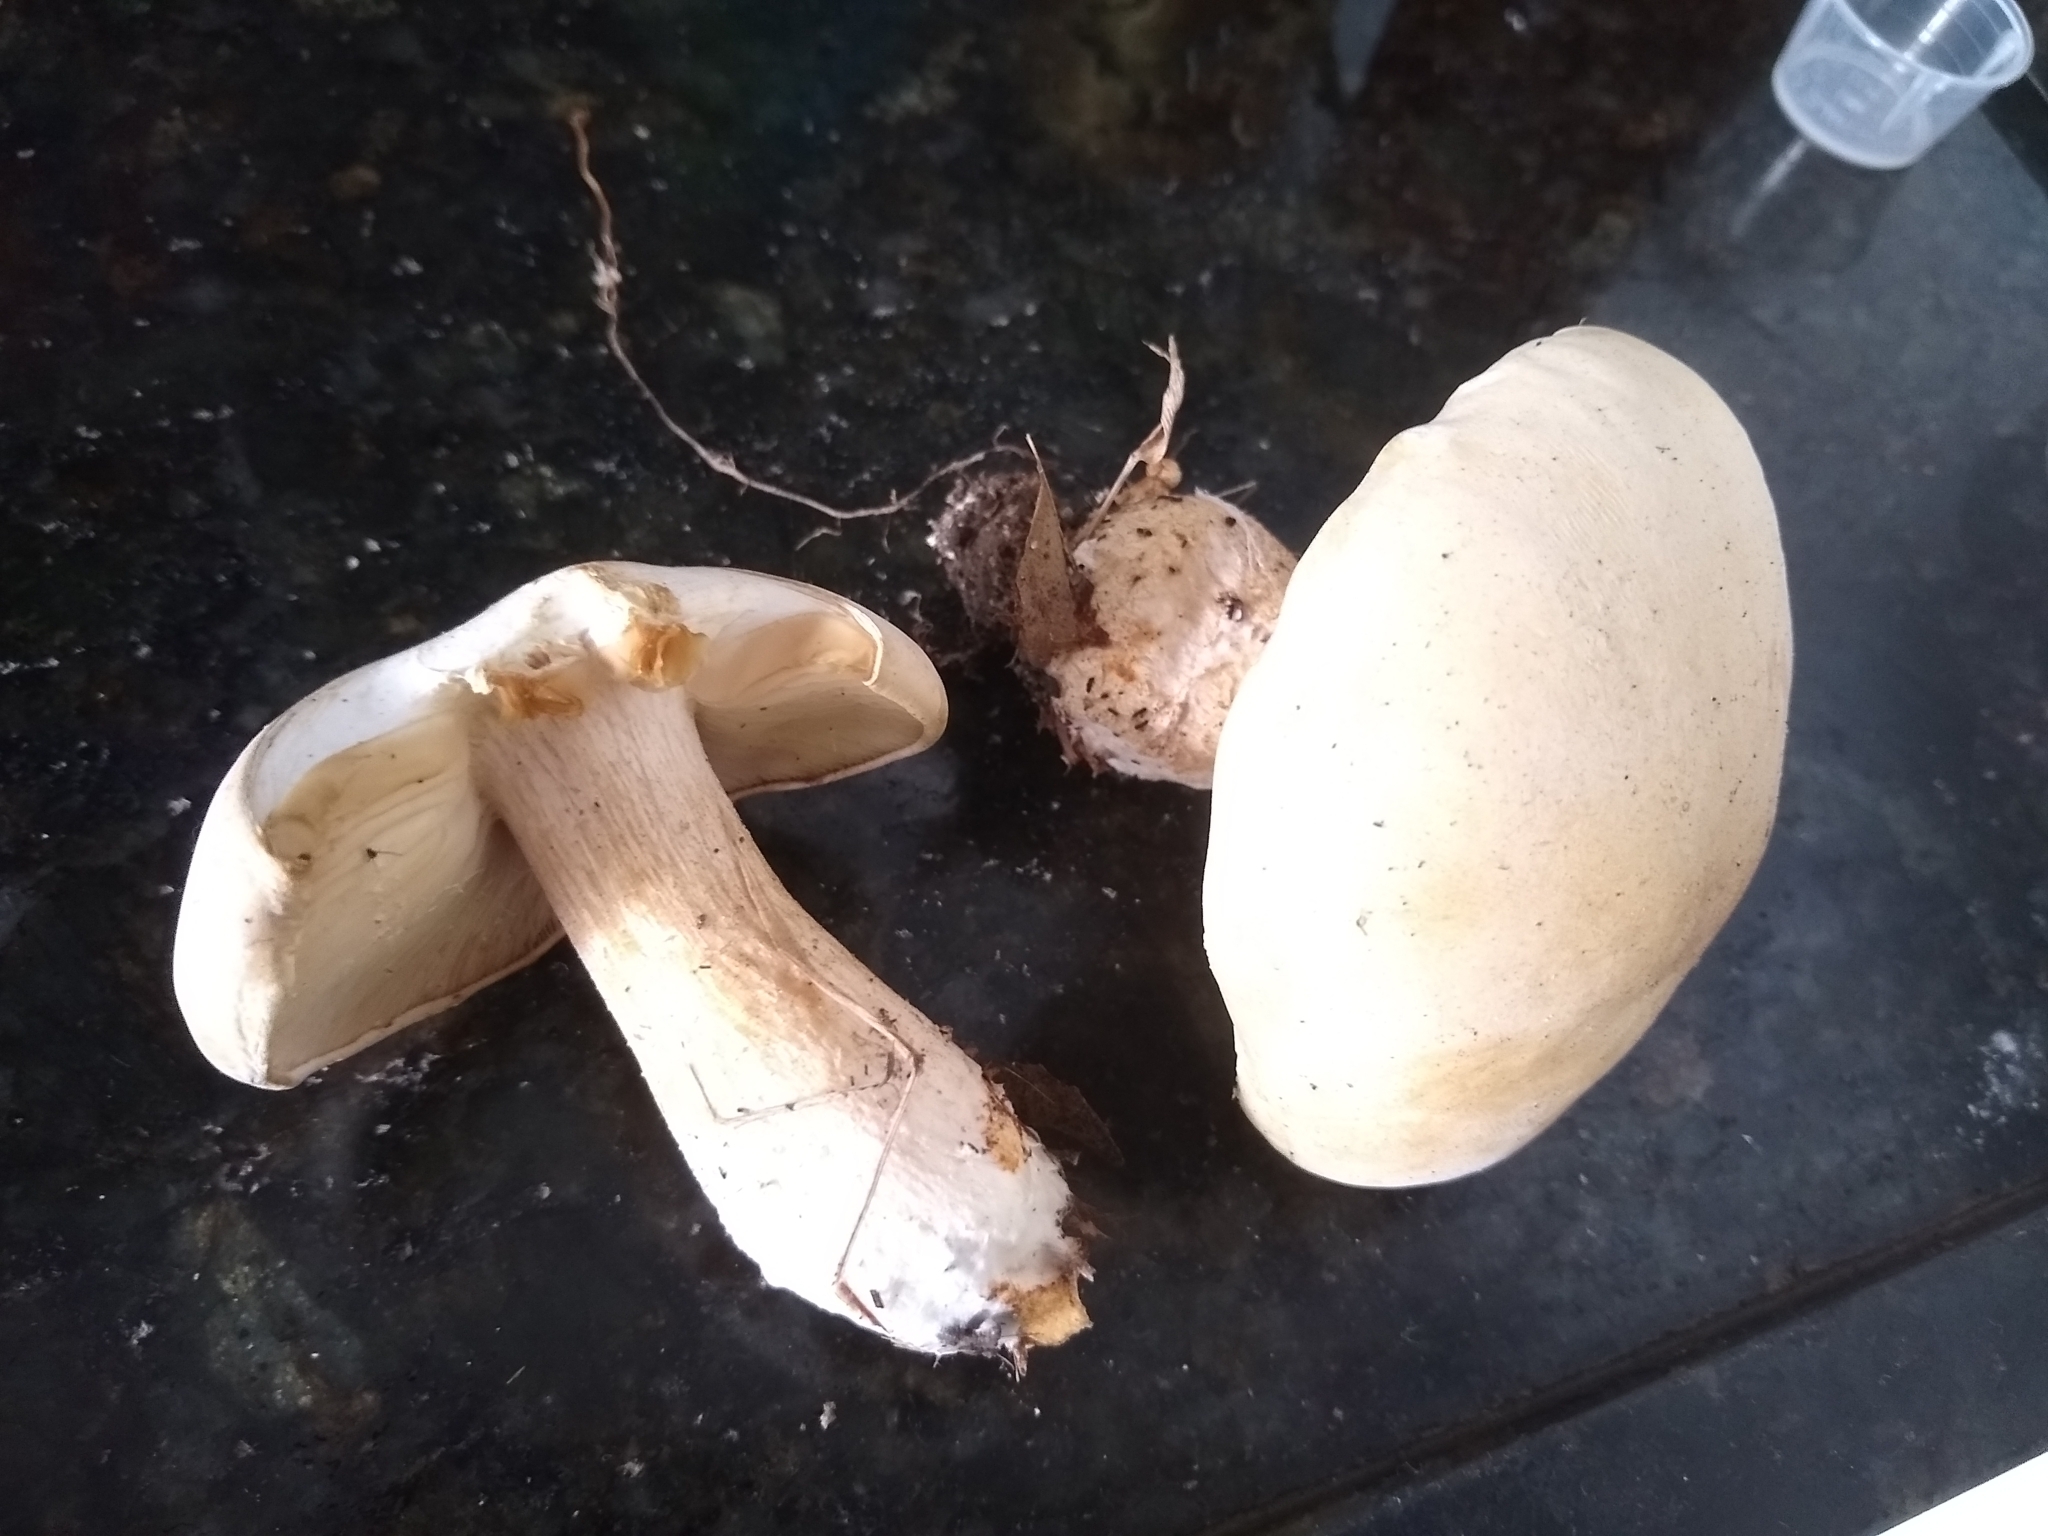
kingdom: Fungi
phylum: Basidiomycota
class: Agaricomycetes
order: Agaricales
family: Callistosporiaceae
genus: Macrocybe
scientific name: Macrocybe titans
